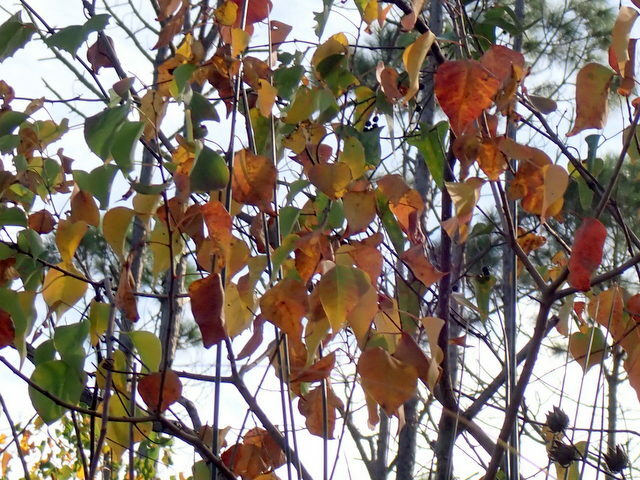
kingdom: Plantae
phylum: Tracheophyta
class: Magnoliopsida
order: Malpighiales
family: Euphorbiaceae
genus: Triadica
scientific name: Triadica sebifera
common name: Chinese tallow
